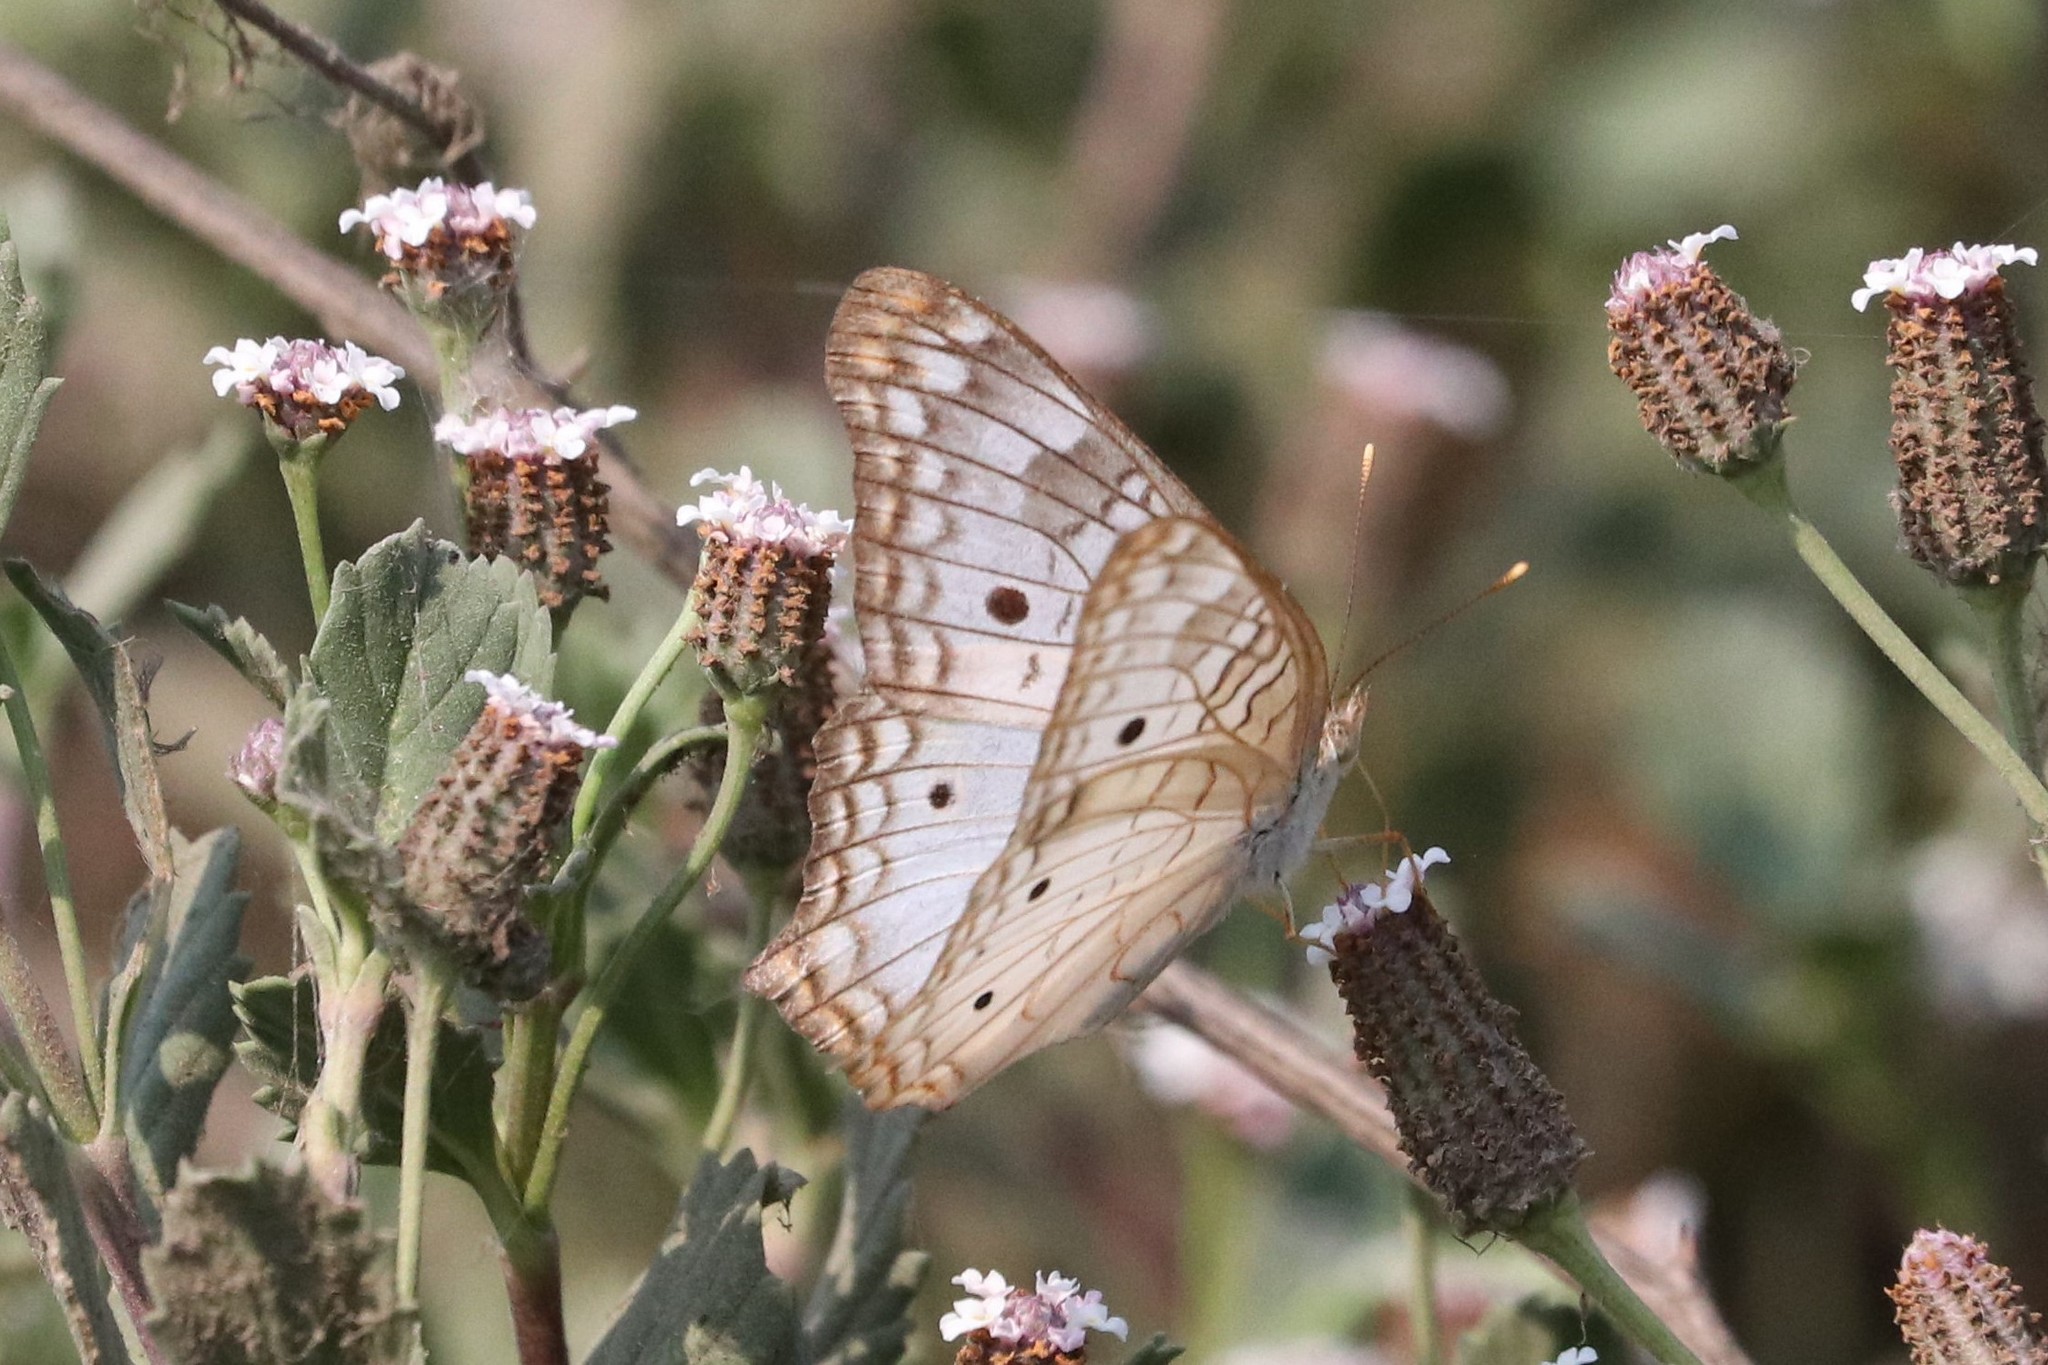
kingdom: Animalia
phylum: Arthropoda
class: Insecta
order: Lepidoptera
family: Nymphalidae
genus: Anartia
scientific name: Anartia jatrophae
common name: White peacock
